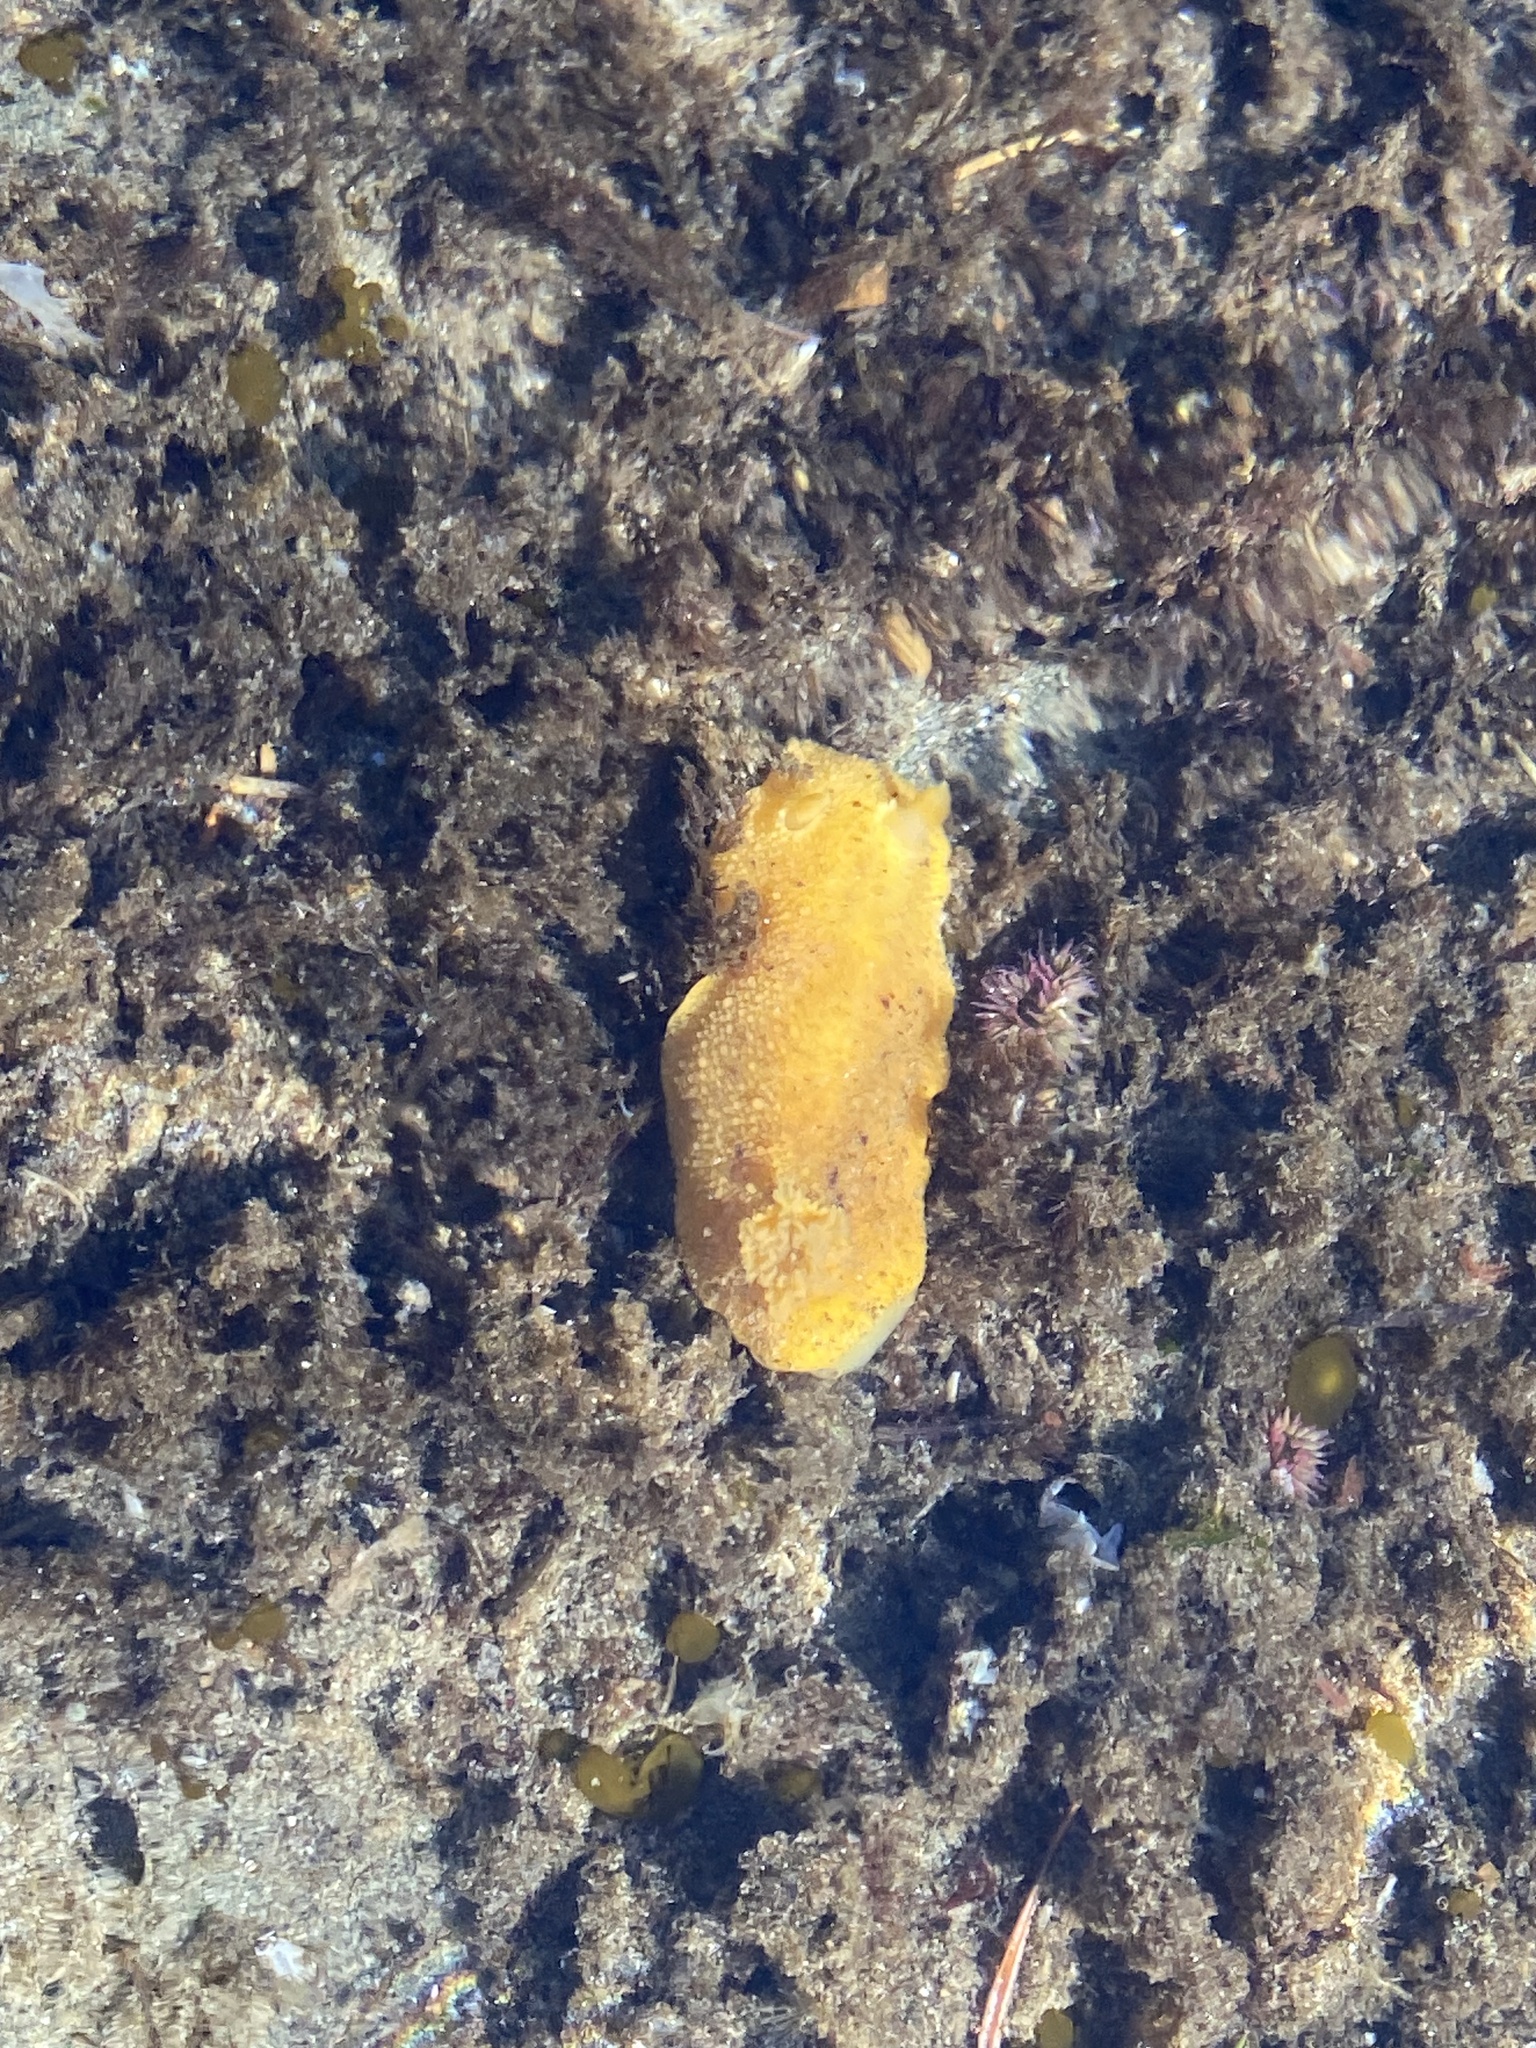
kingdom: Animalia
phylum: Mollusca
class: Gastropoda
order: Nudibranchia
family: Dorididae
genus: Doris
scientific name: Doris montereyensis
